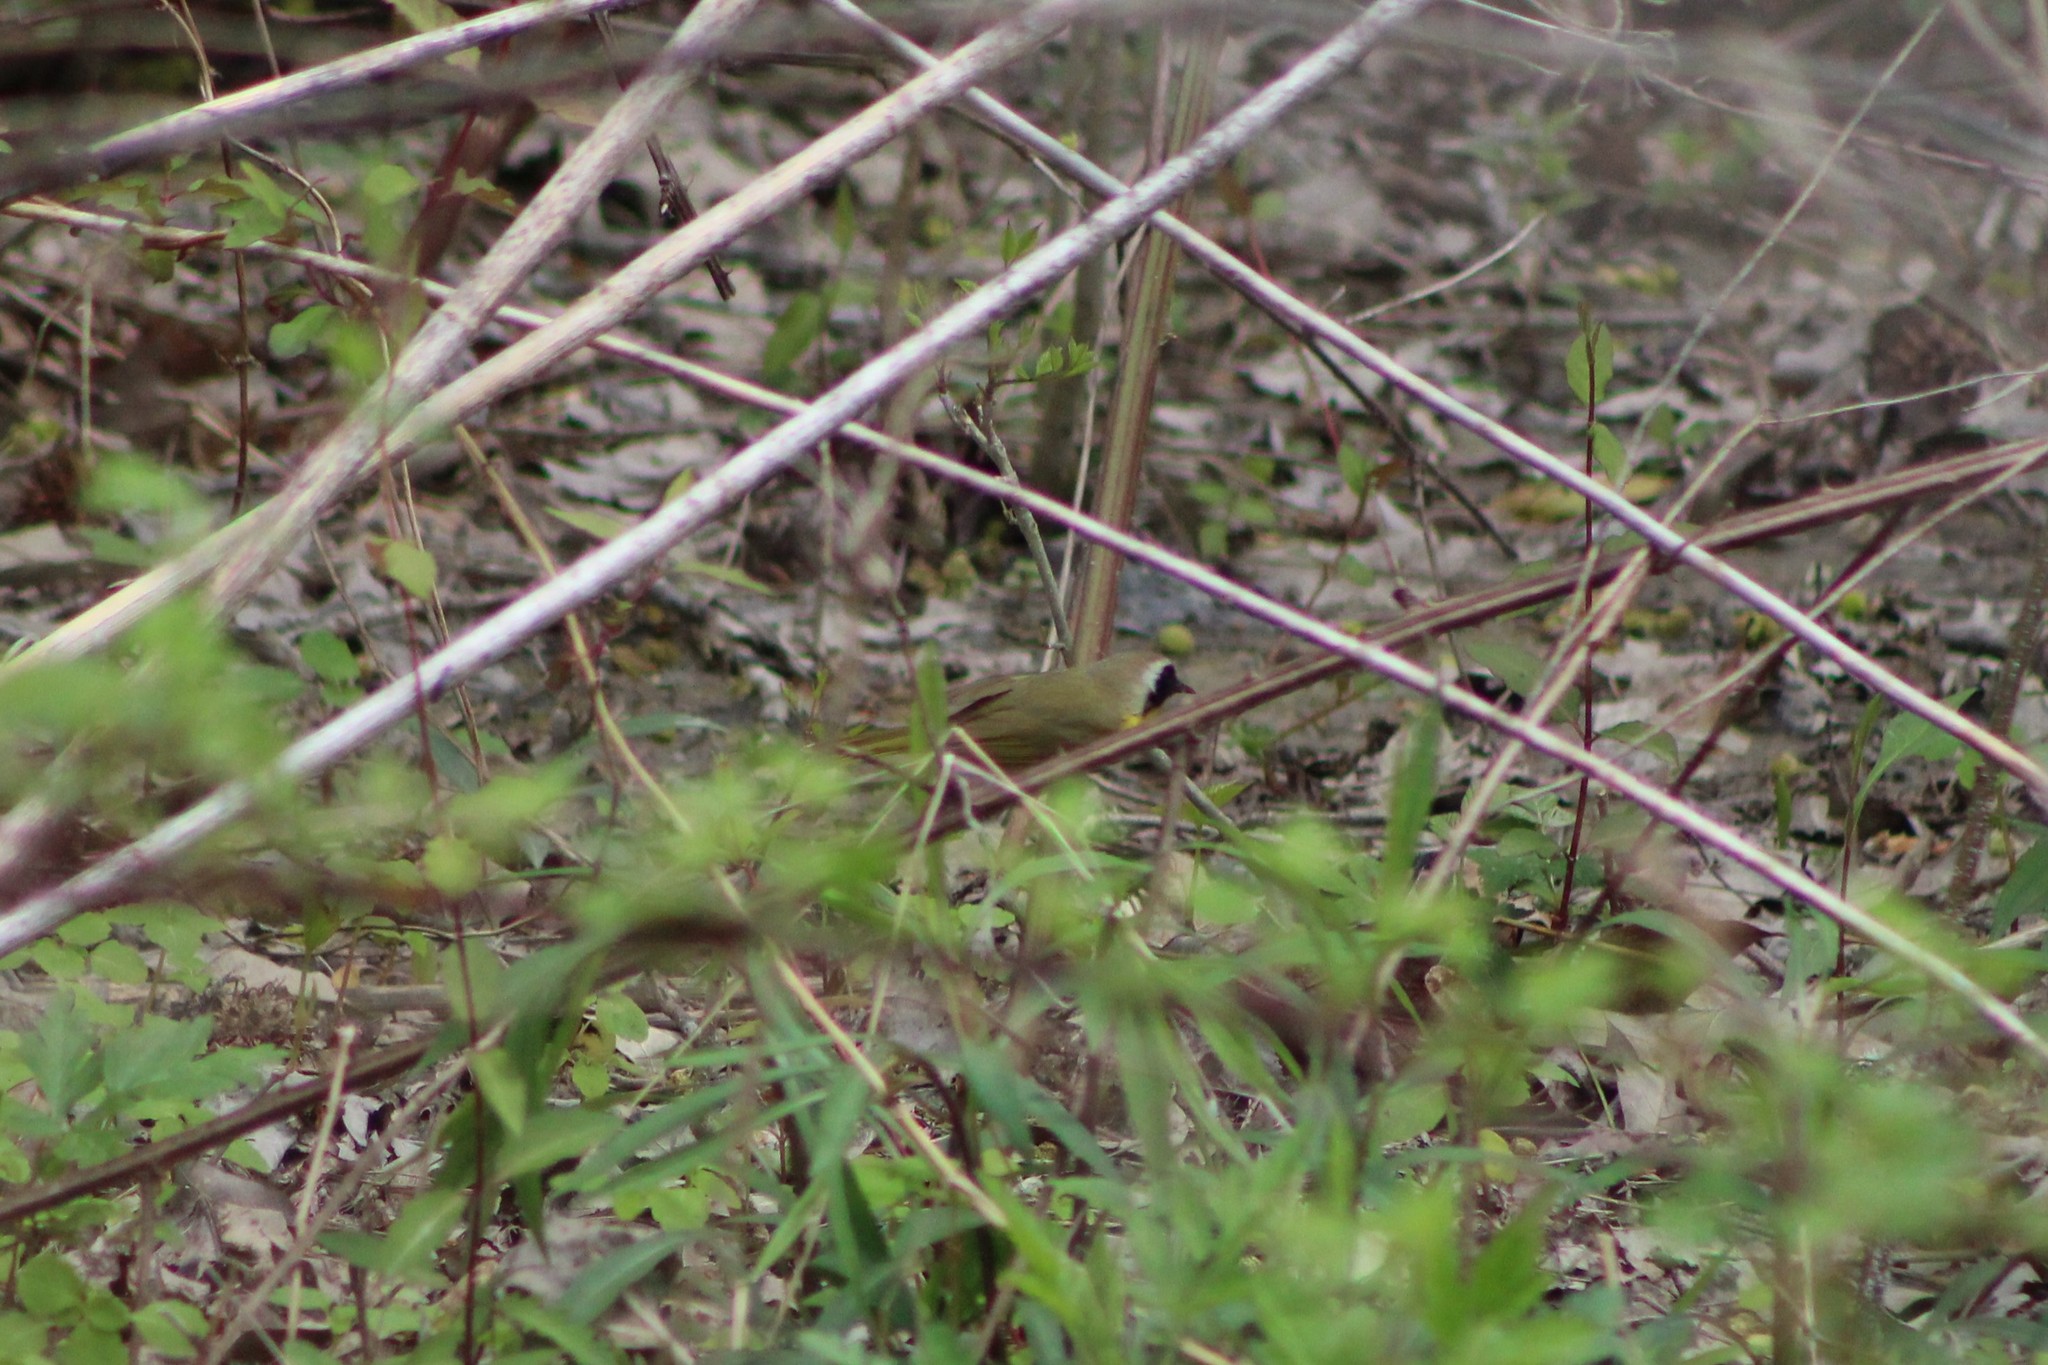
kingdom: Animalia
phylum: Chordata
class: Aves
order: Passeriformes
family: Parulidae
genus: Geothlypis
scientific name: Geothlypis trichas
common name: Common yellowthroat
